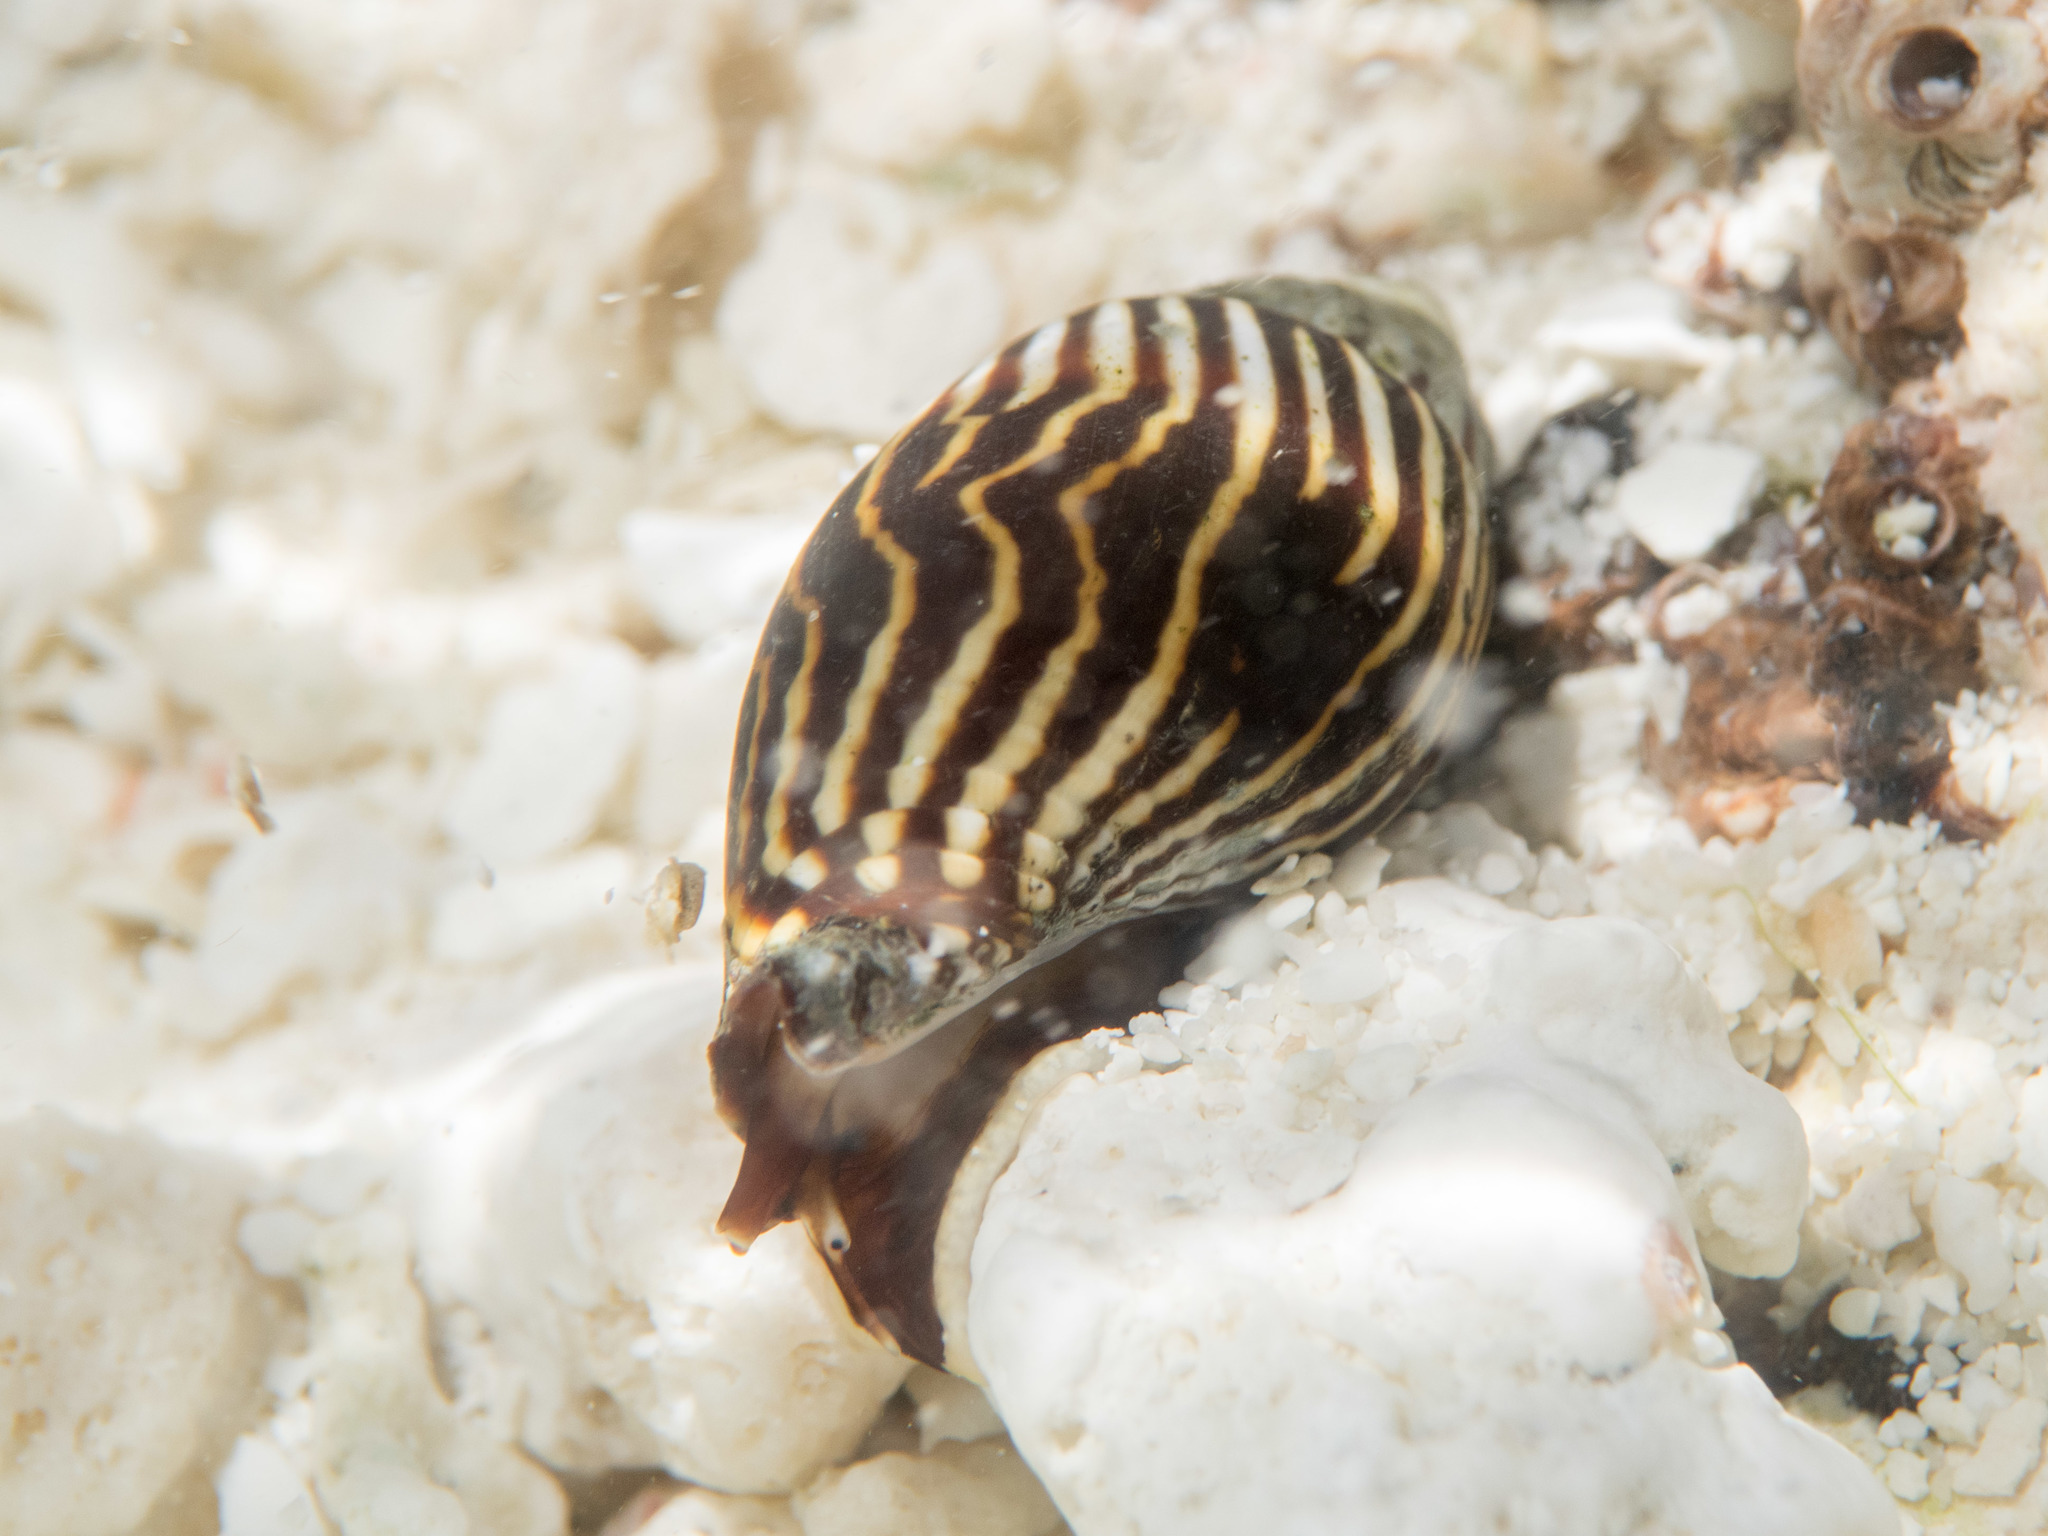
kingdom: Animalia
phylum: Mollusca
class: Gastropoda
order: Neogastropoda
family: Mitridae
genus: Strigatella
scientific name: Strigatella paupercula
